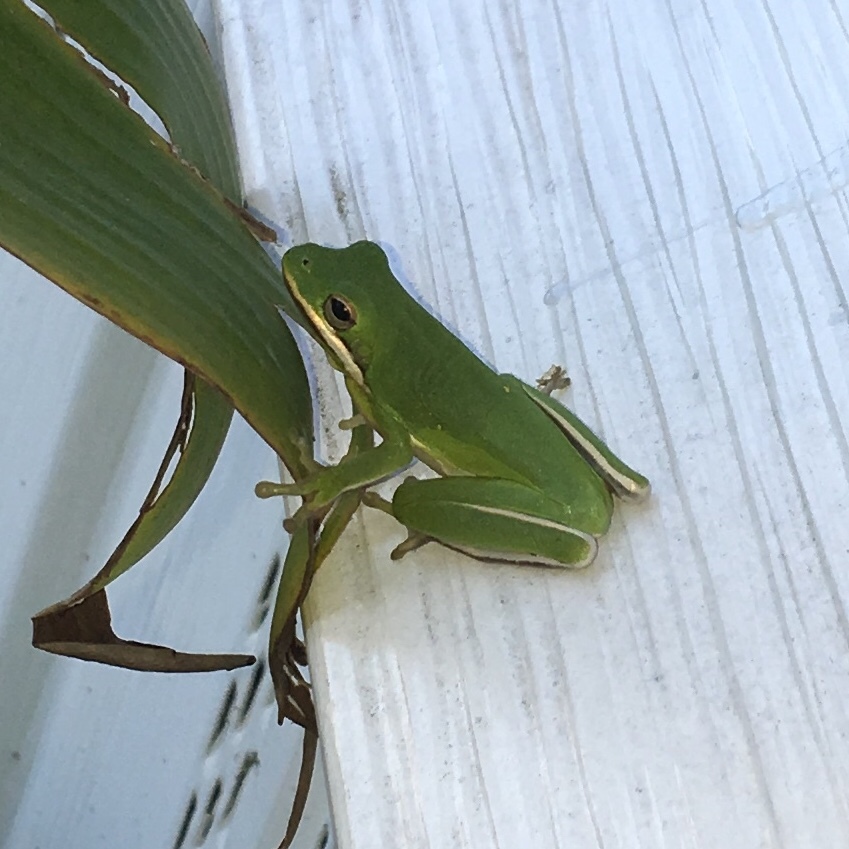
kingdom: Animalia
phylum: Chordata
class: Amphibia
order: Anura
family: Hylidae
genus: Dryophytes
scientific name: Dryophytes cinereus
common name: Green treefrog
